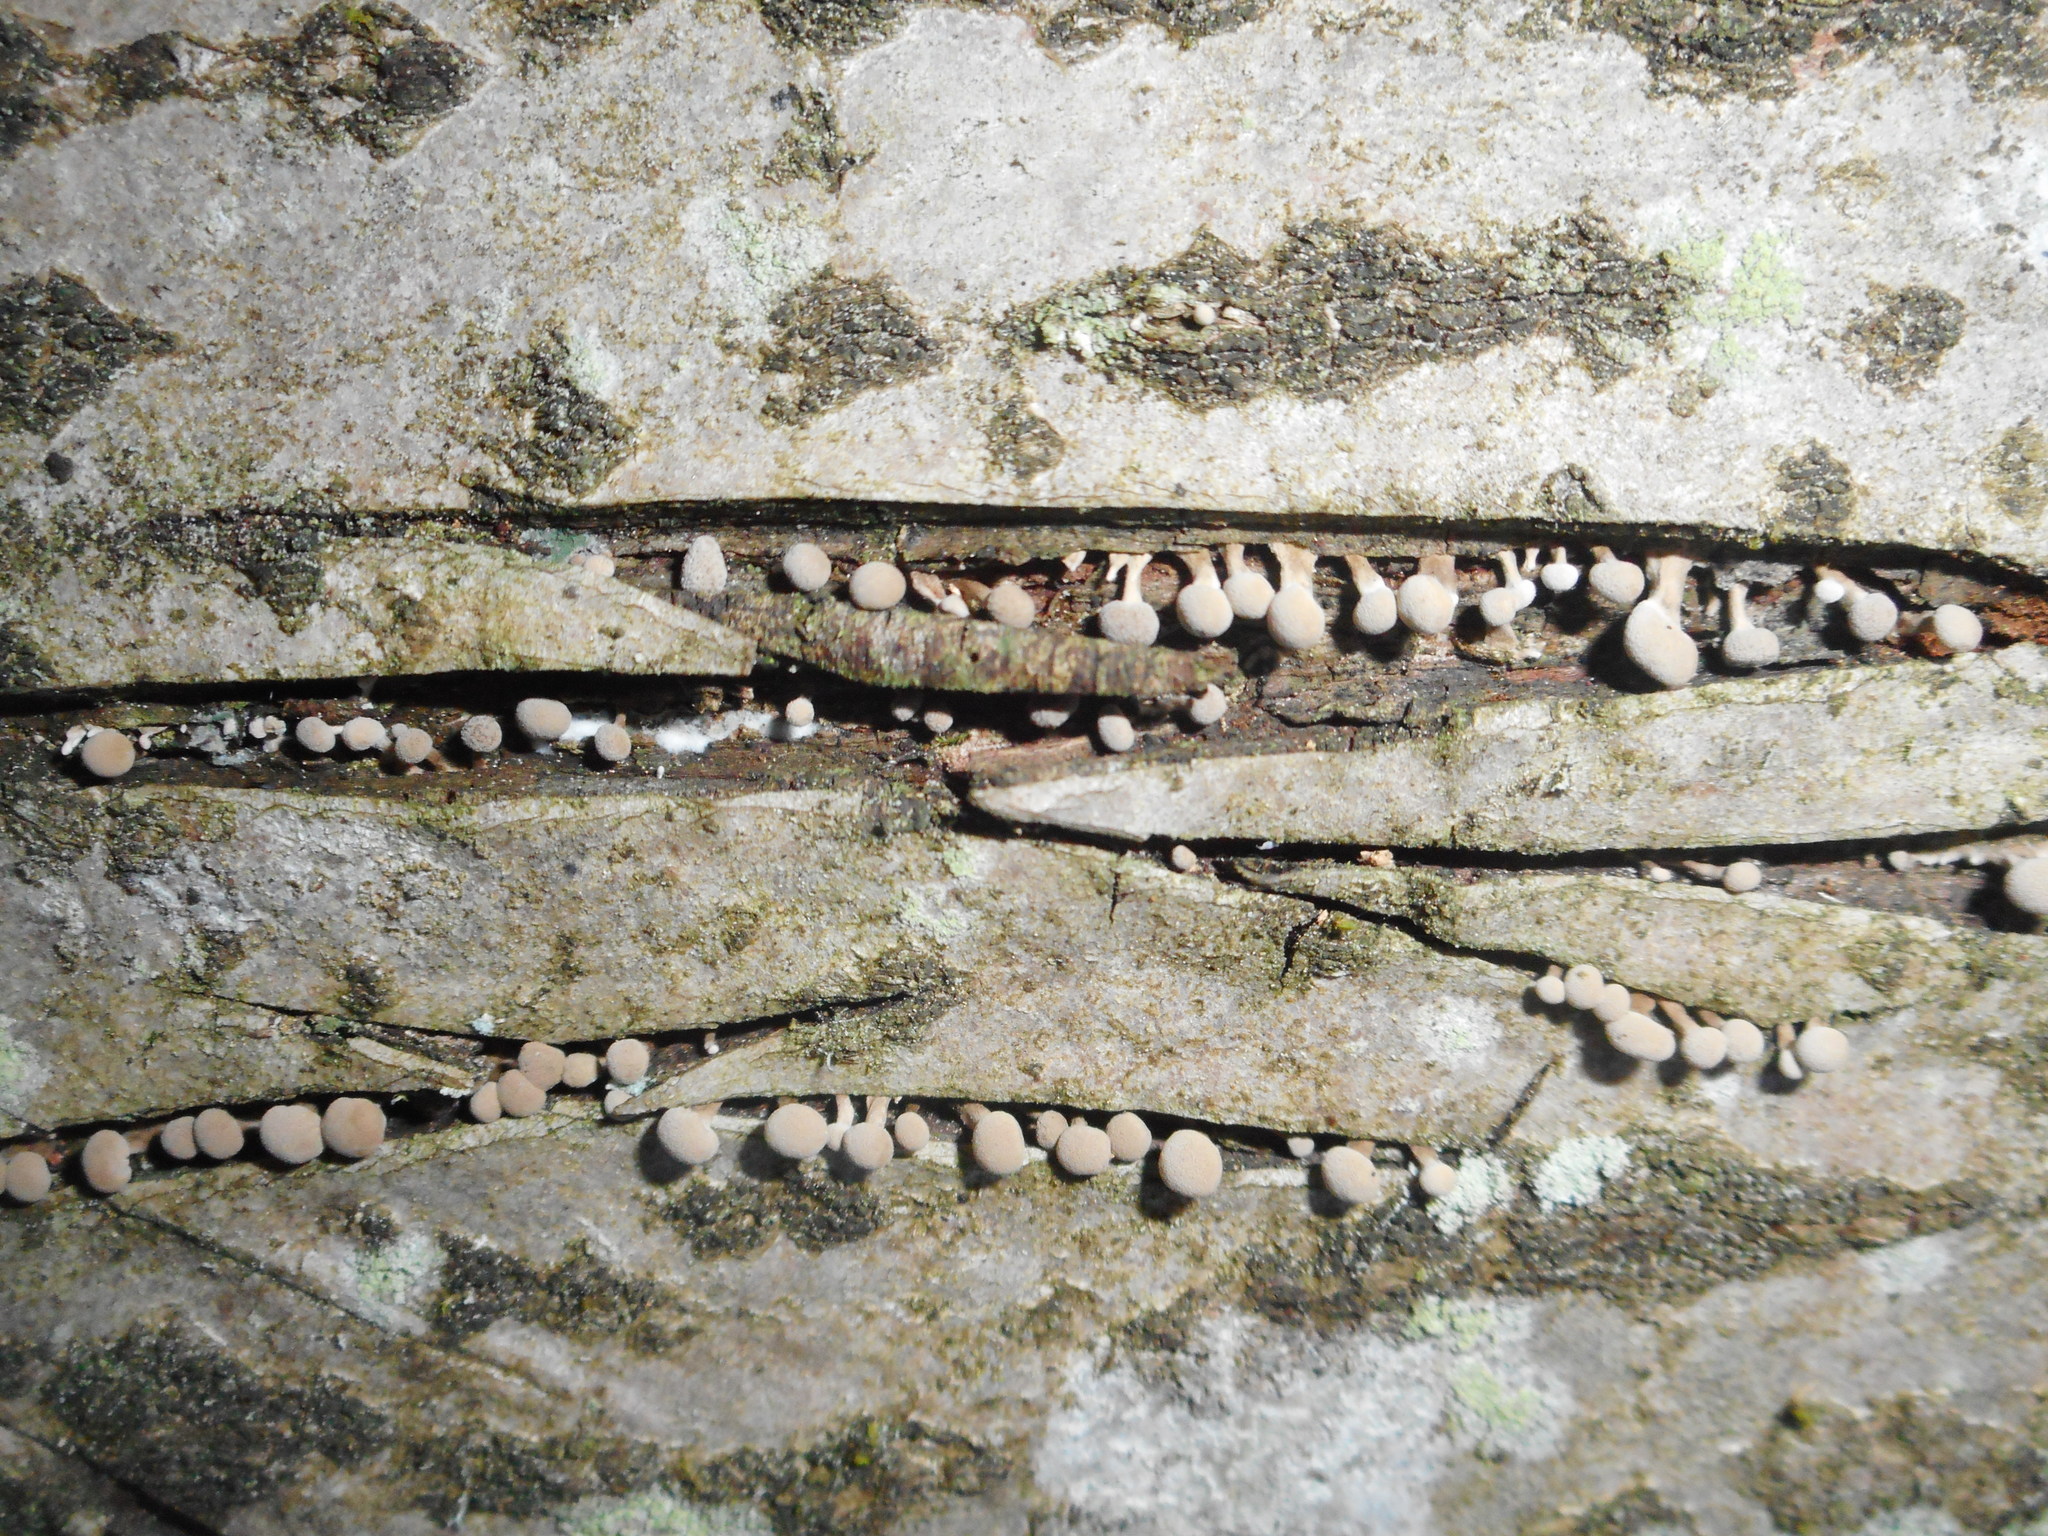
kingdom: Fungi
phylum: Basidiomycota
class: Atractiellomycetes
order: Atractiellales
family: Phleogenaceae
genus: Phleogena
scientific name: Phleogena faginea
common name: Fenugreek stalkball
